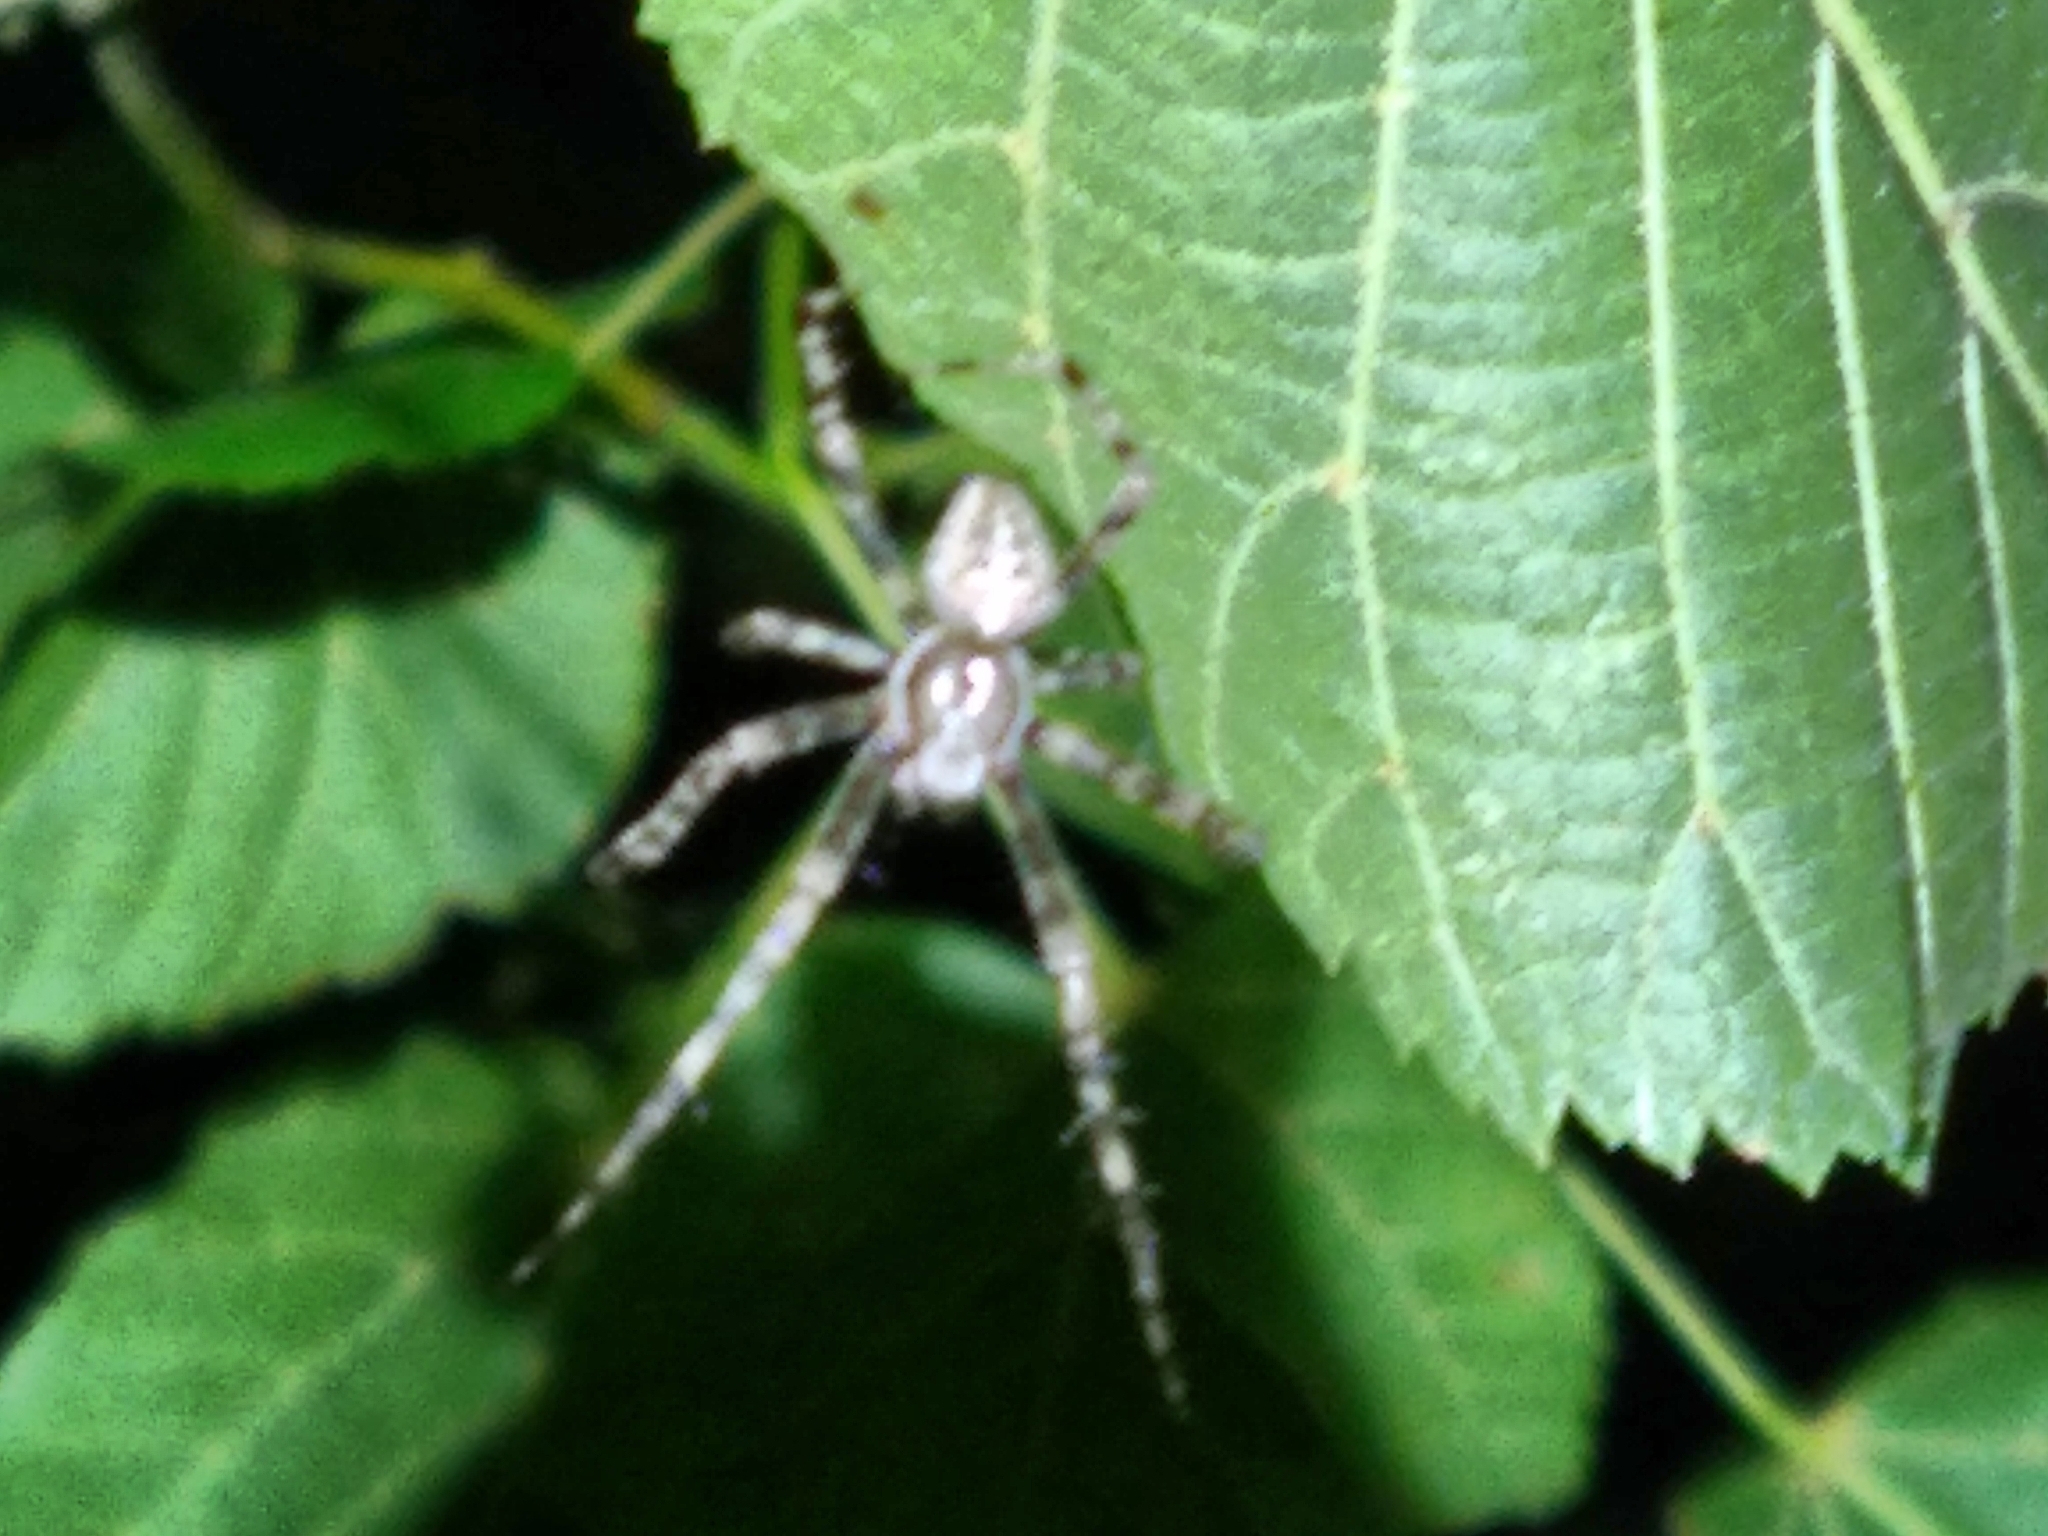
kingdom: Animalia
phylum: Arthropoda
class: Arachnida
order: Araneae
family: Araneidae
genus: Araneus
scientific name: Araneus diadematus
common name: Cross orbweaver
